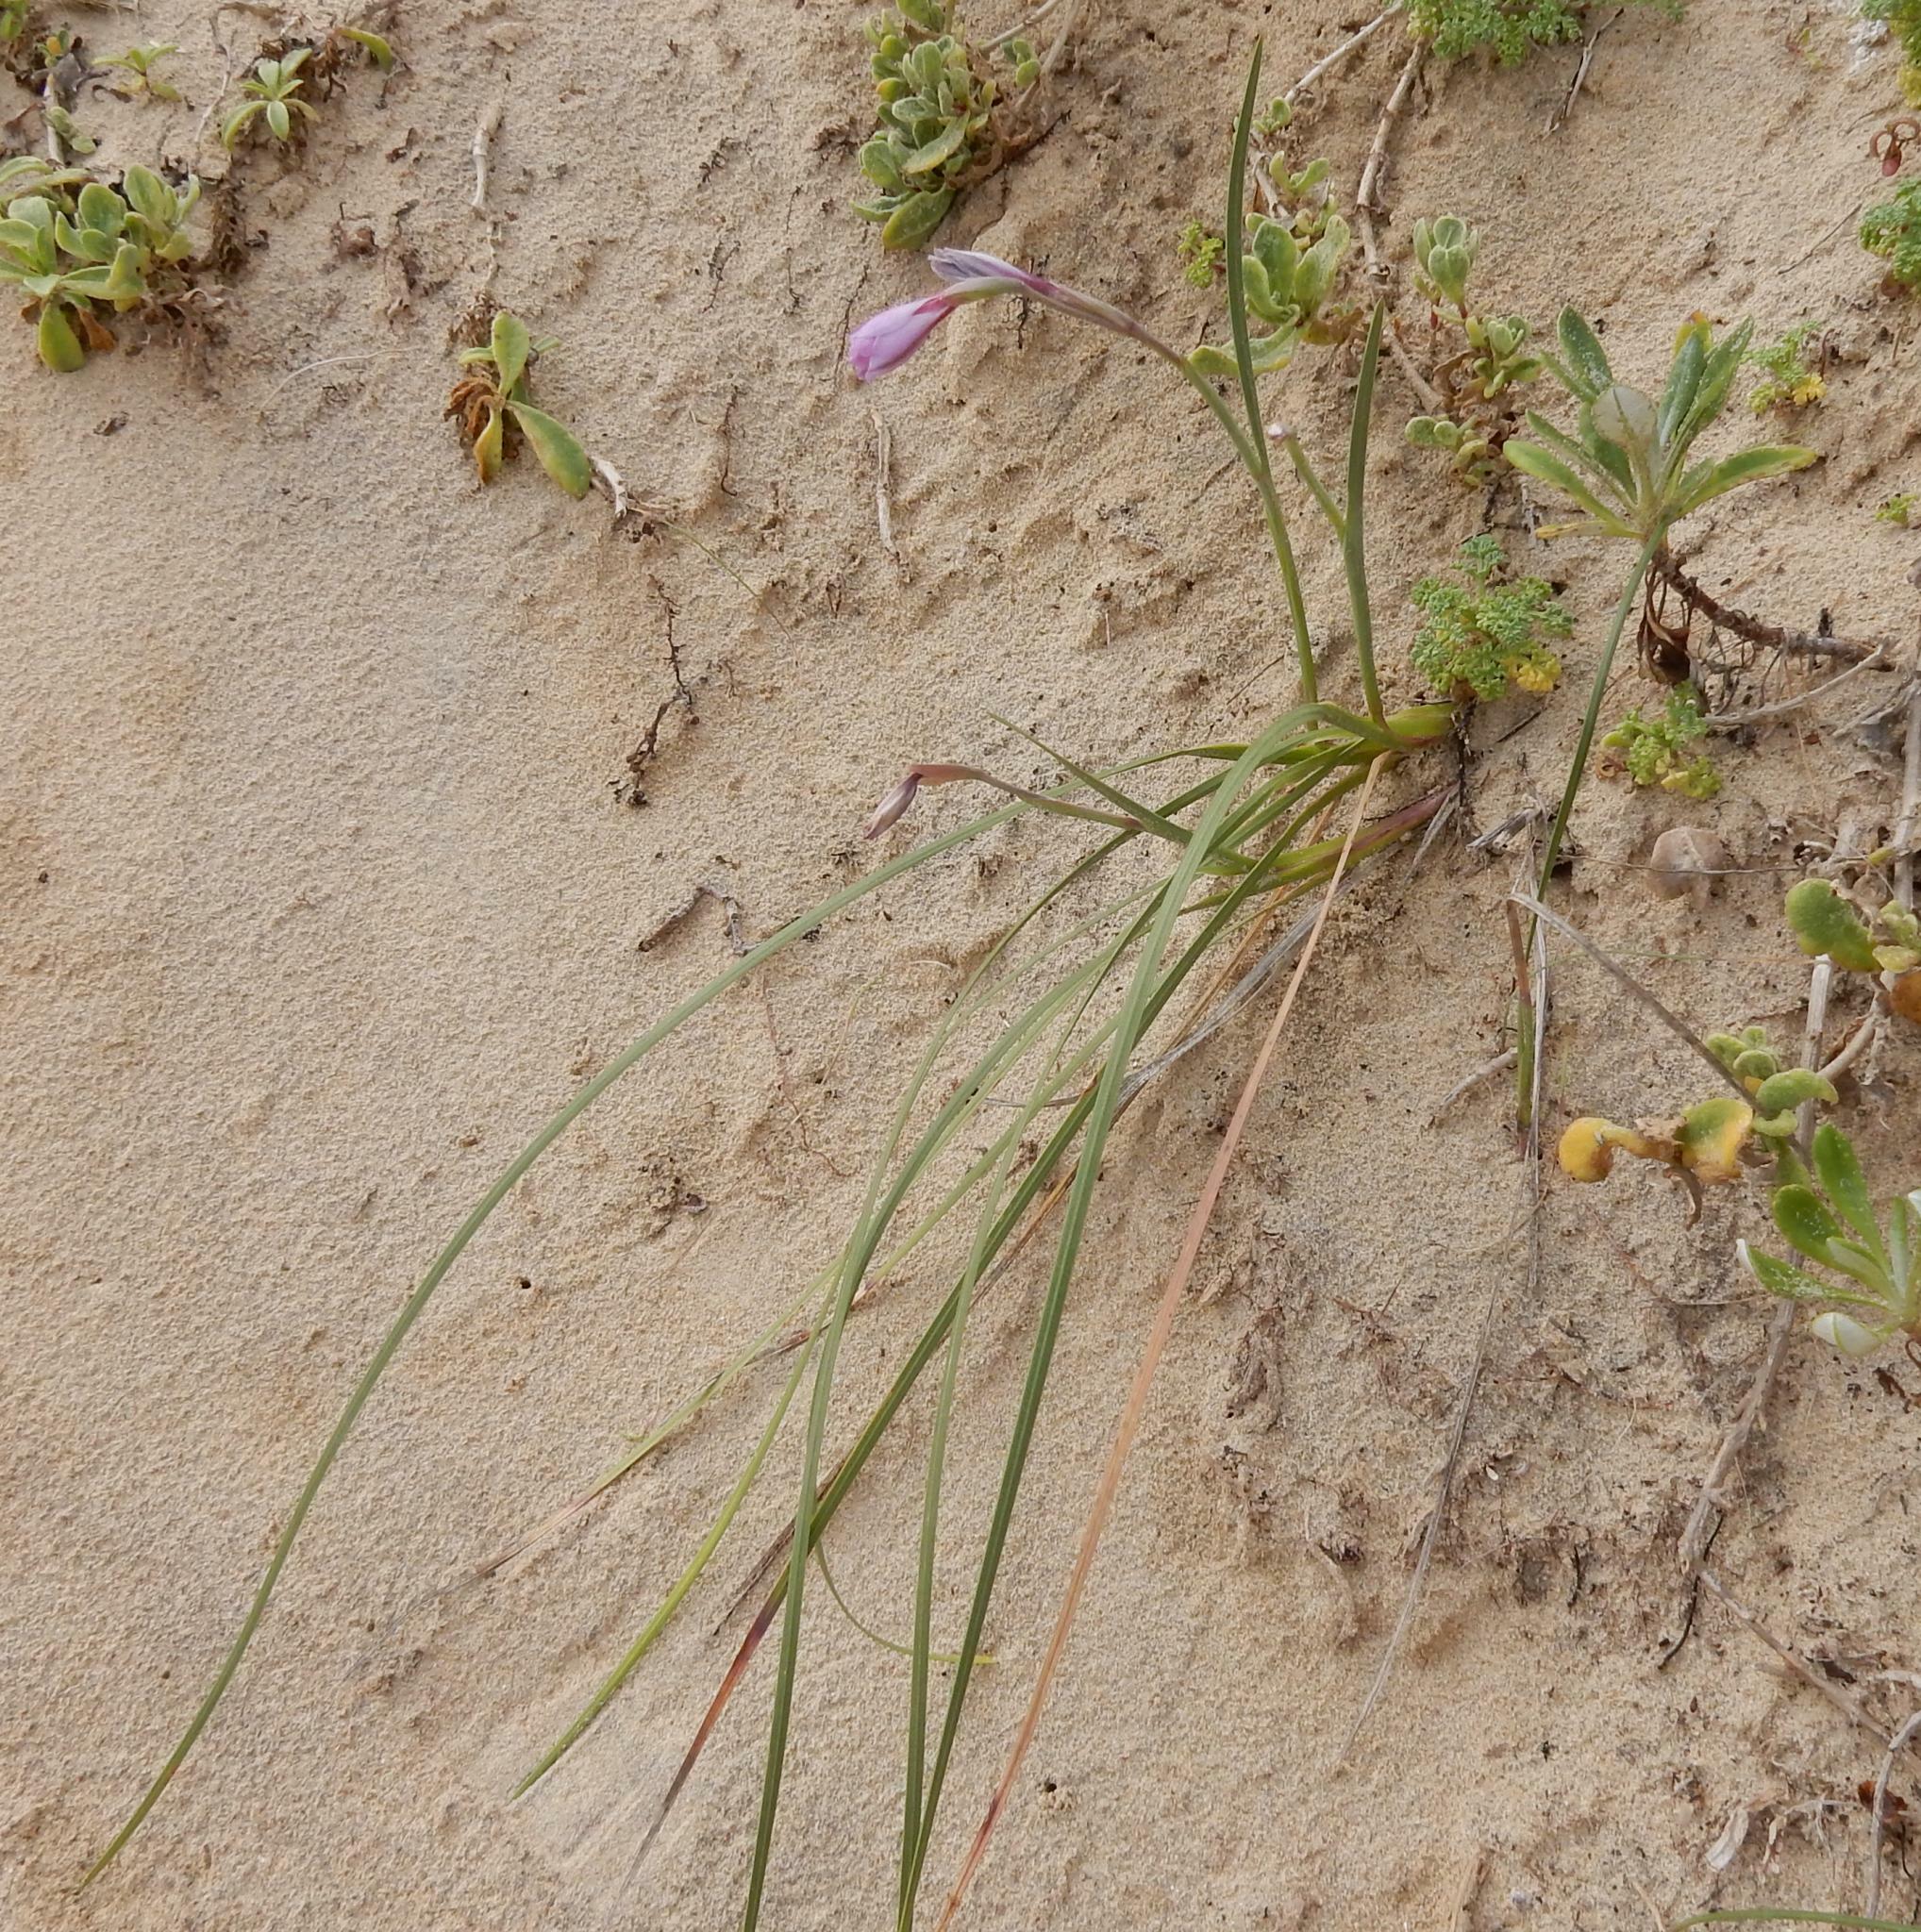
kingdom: Plantae
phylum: Tracheophyta
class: Liliopsida
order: Asparagales
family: Iridaceae
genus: Gladiolus
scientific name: Gladiolus gueinzii
